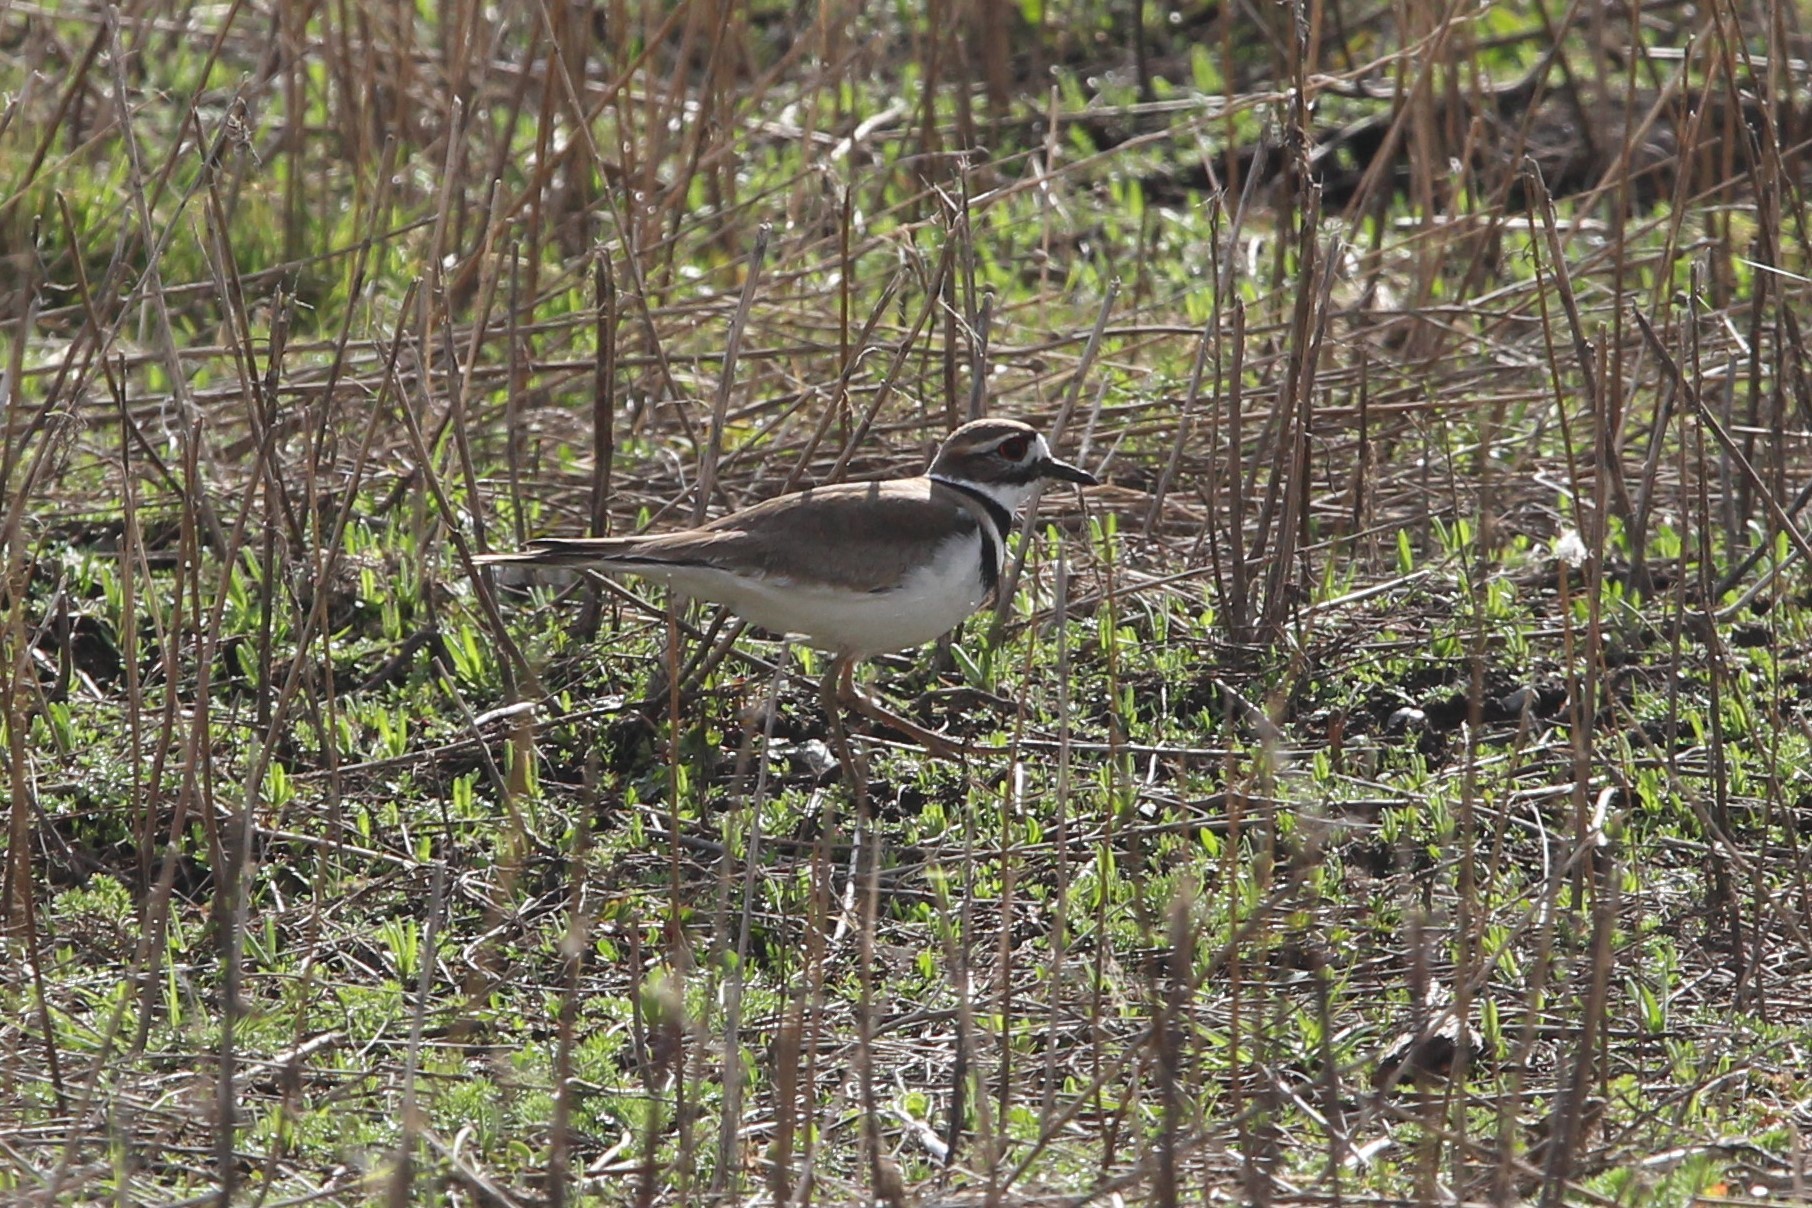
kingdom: Animalia
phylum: Chordata
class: Aves
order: Charadriiformes
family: Charadriidae
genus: Charadrius
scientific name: Charadrius vociferus
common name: Killdeer
